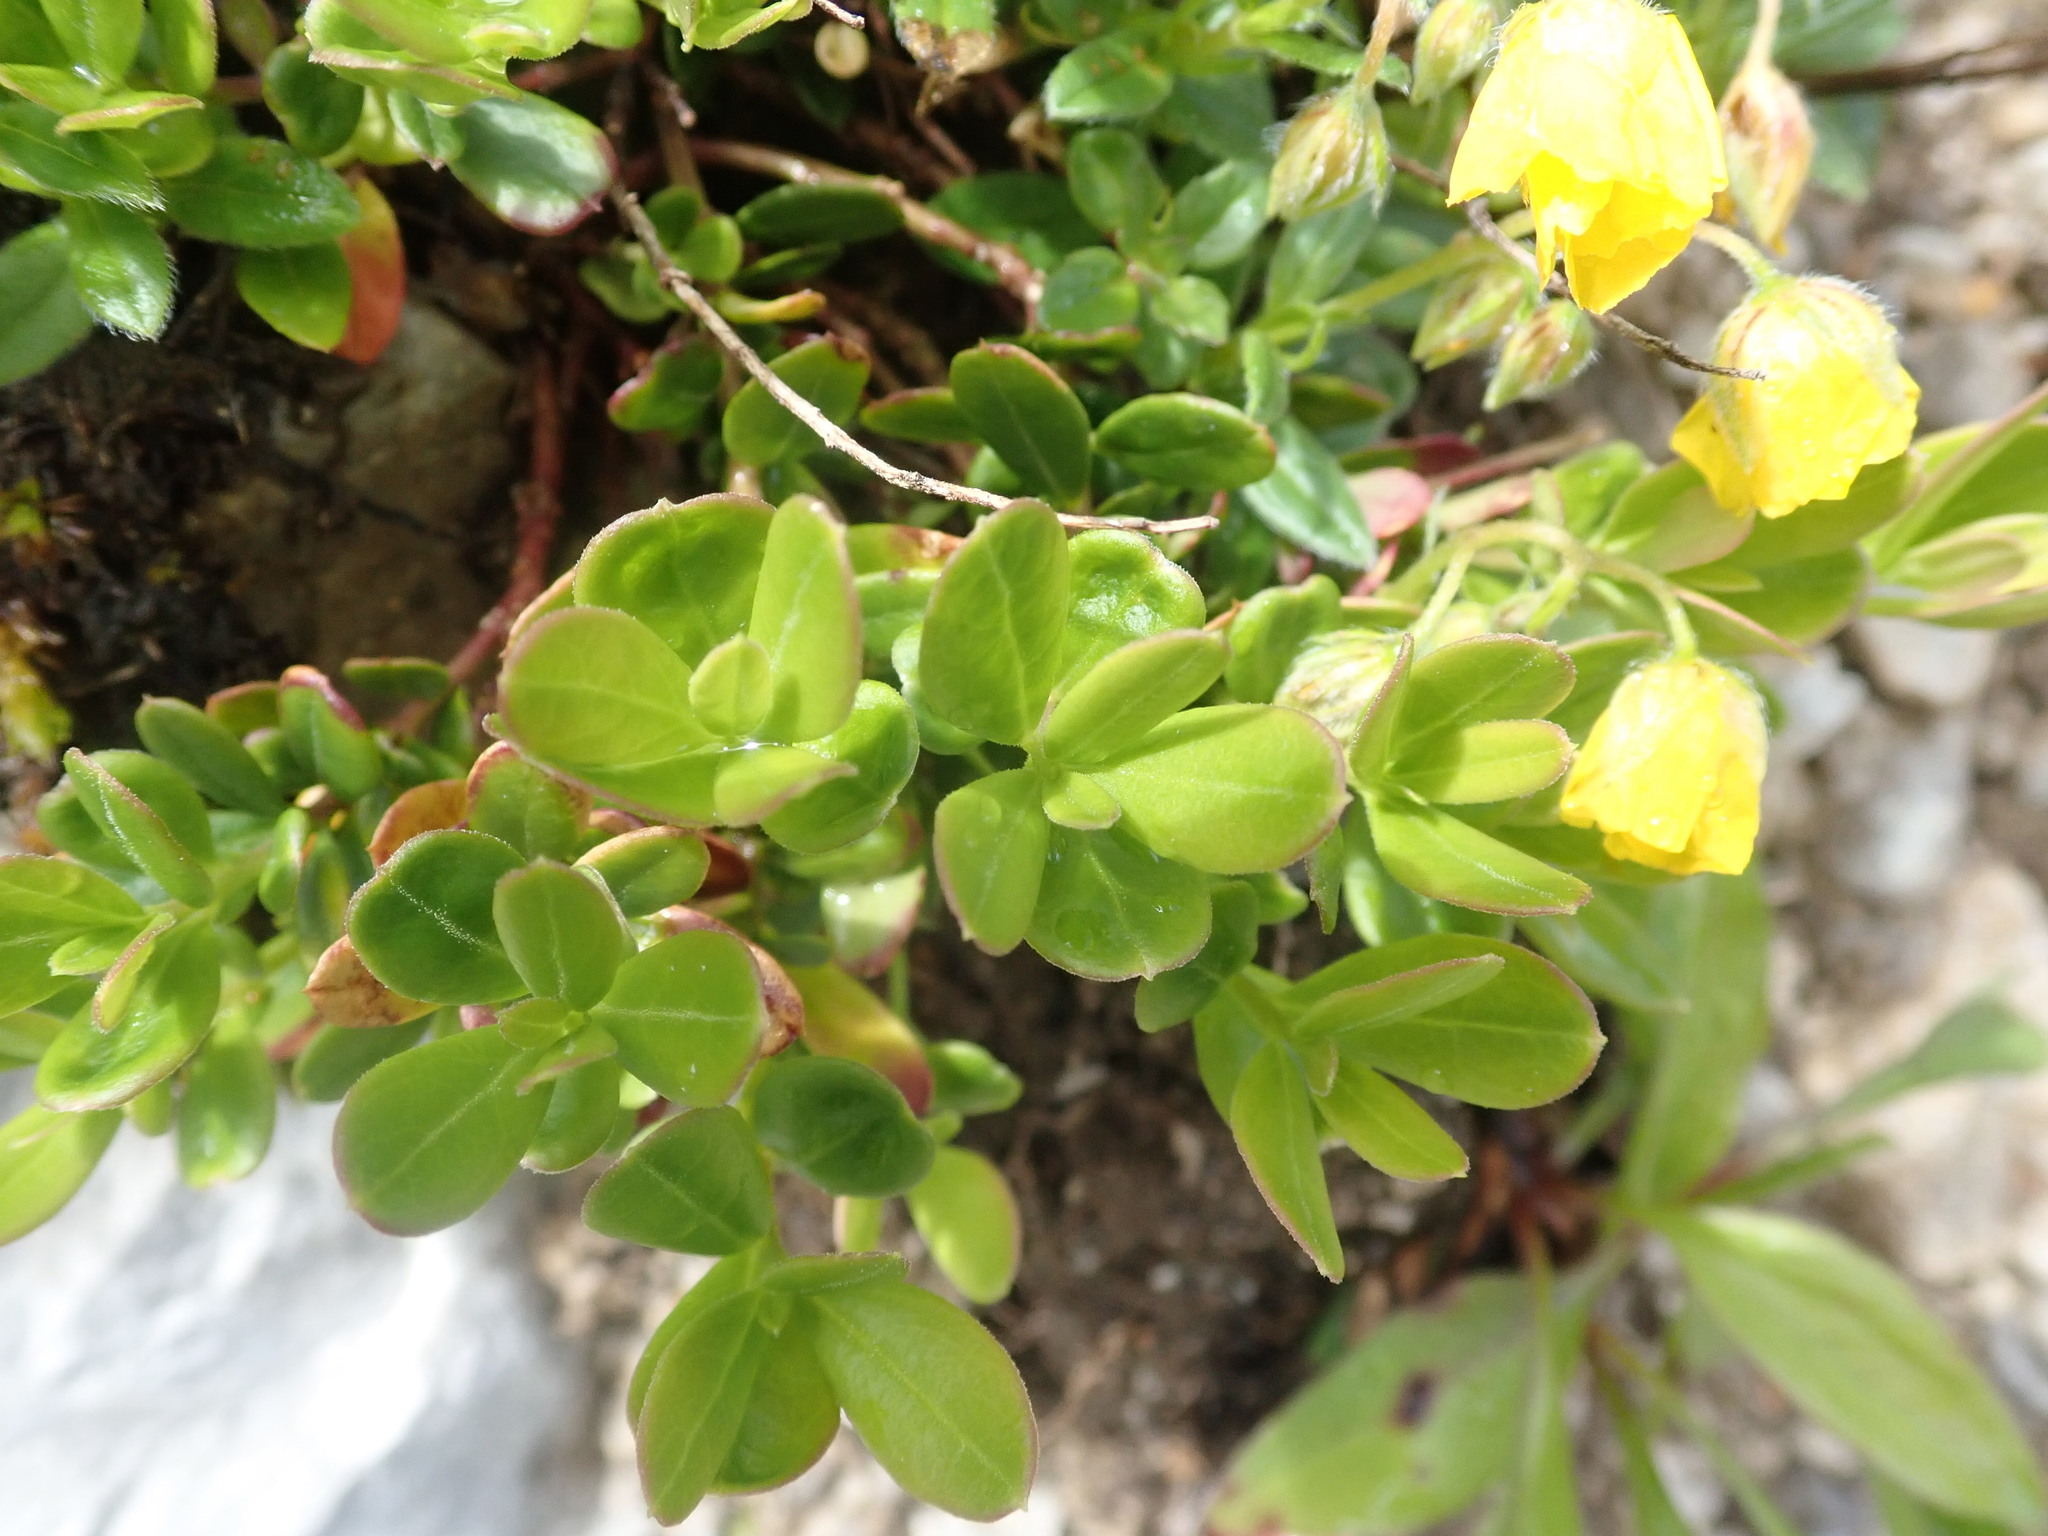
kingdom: Plantae
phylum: Tracheophyta
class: Magnoliopsida
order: Malvales
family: Cistaceae
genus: Helianthemum
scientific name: Helianthemum nummularium
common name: Common rock-rose
